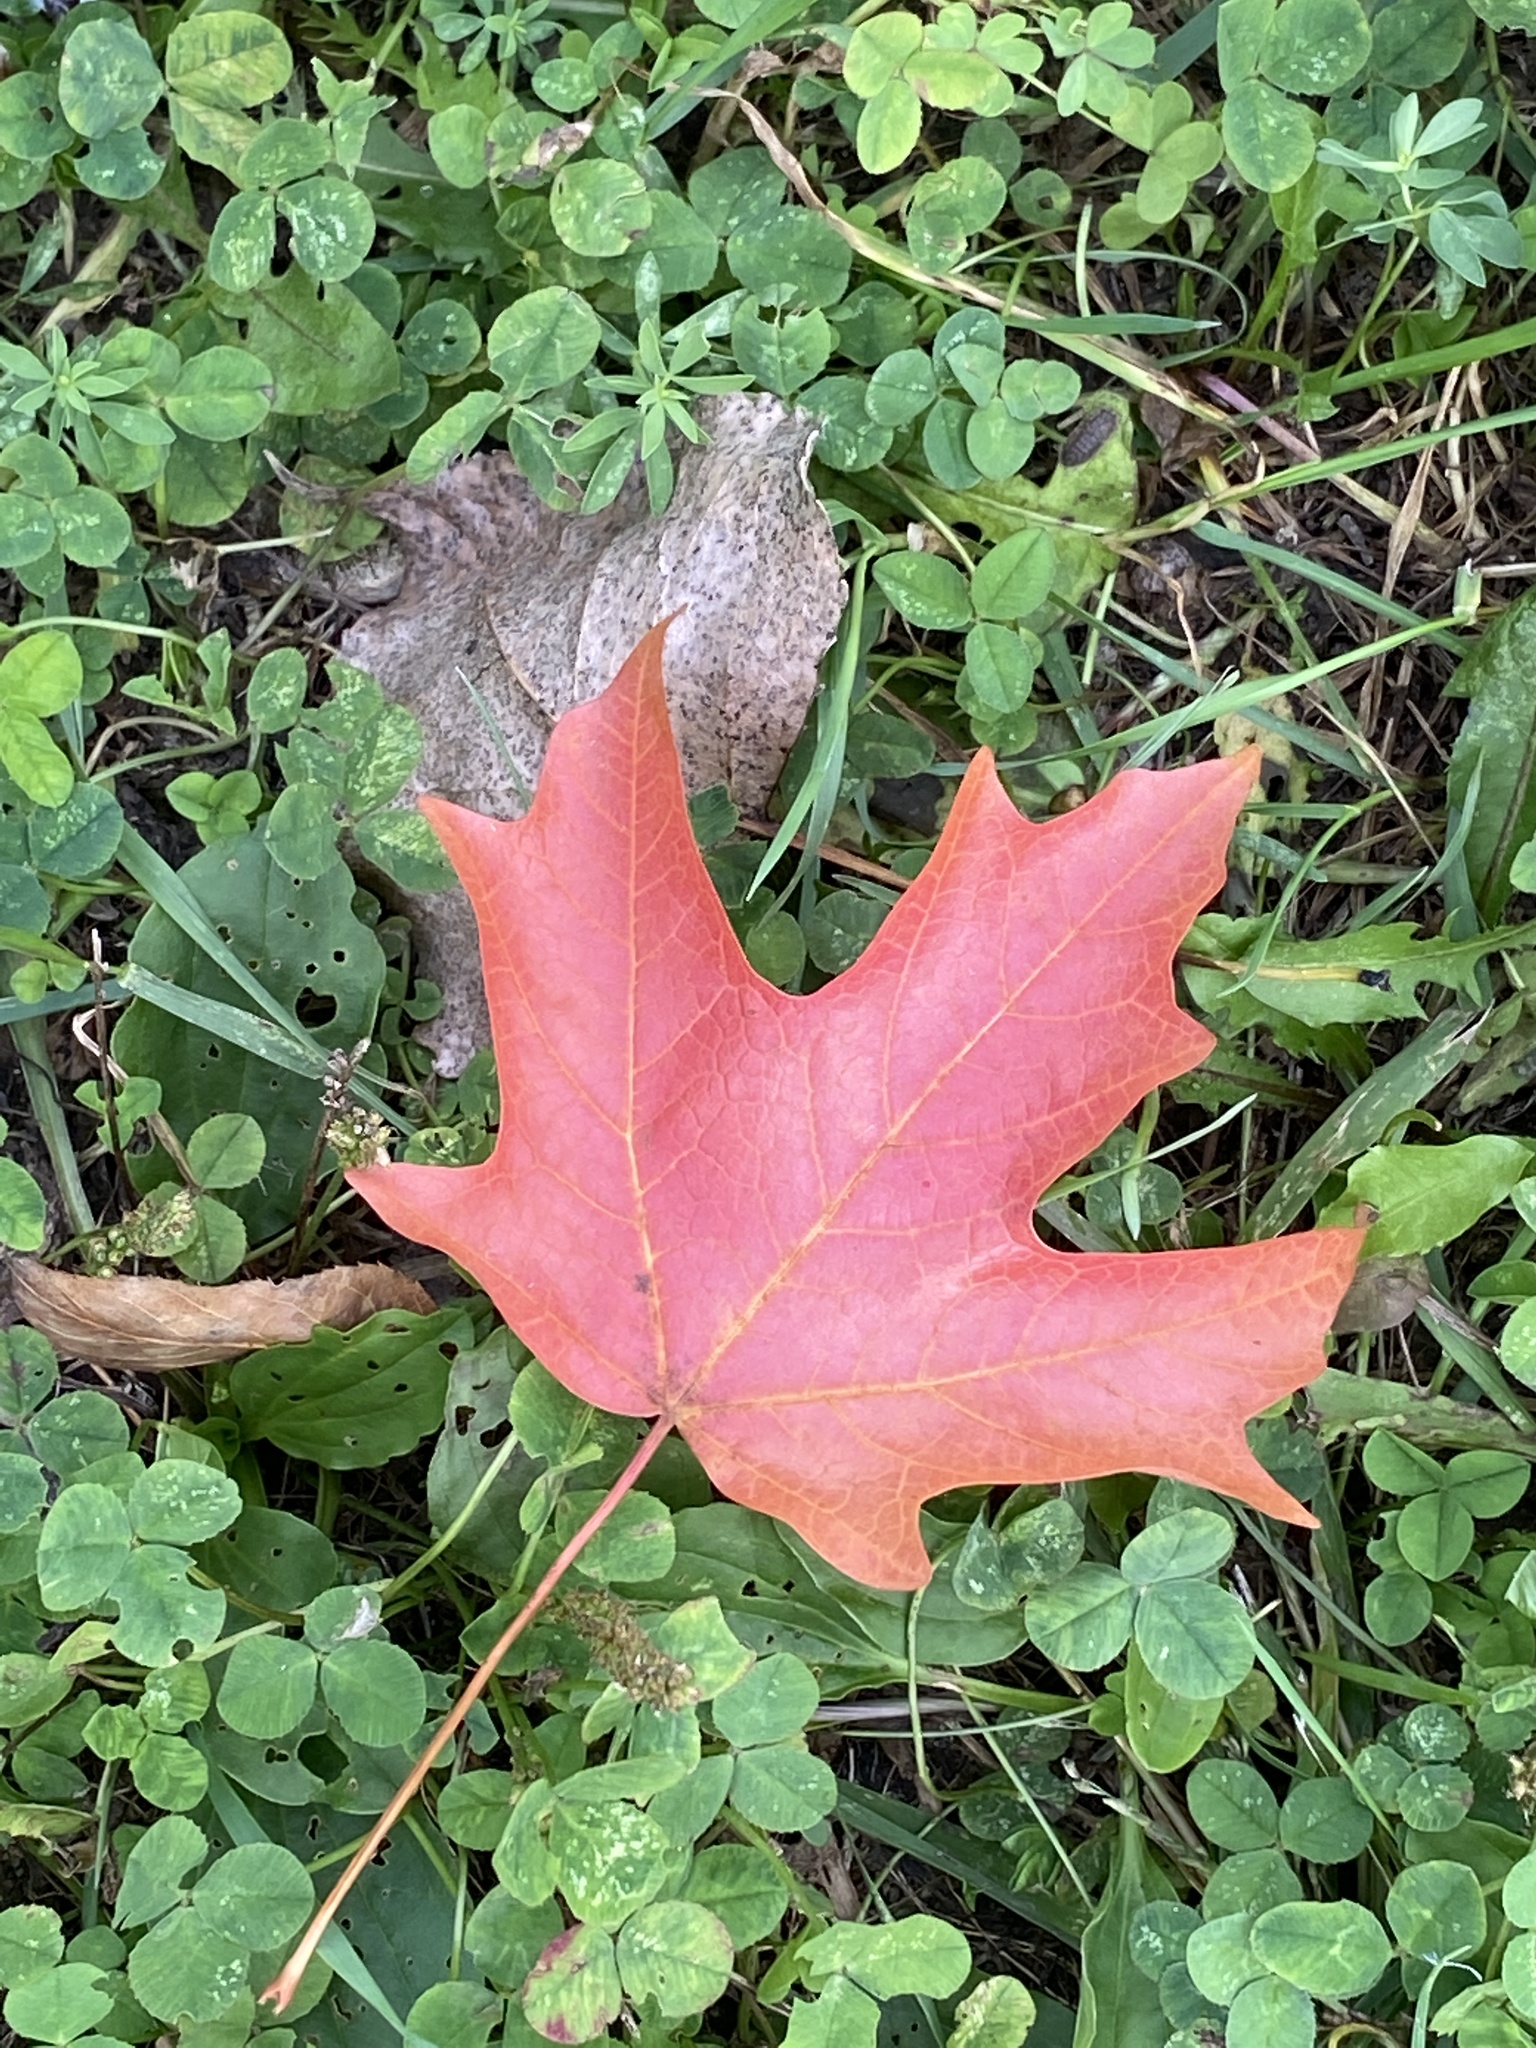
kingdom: Plantae
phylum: Tracheophyta
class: Magnoliopsida
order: Sapindales
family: Sapindaceae
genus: Acer
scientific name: Acer saccharum
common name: Sugar maple
